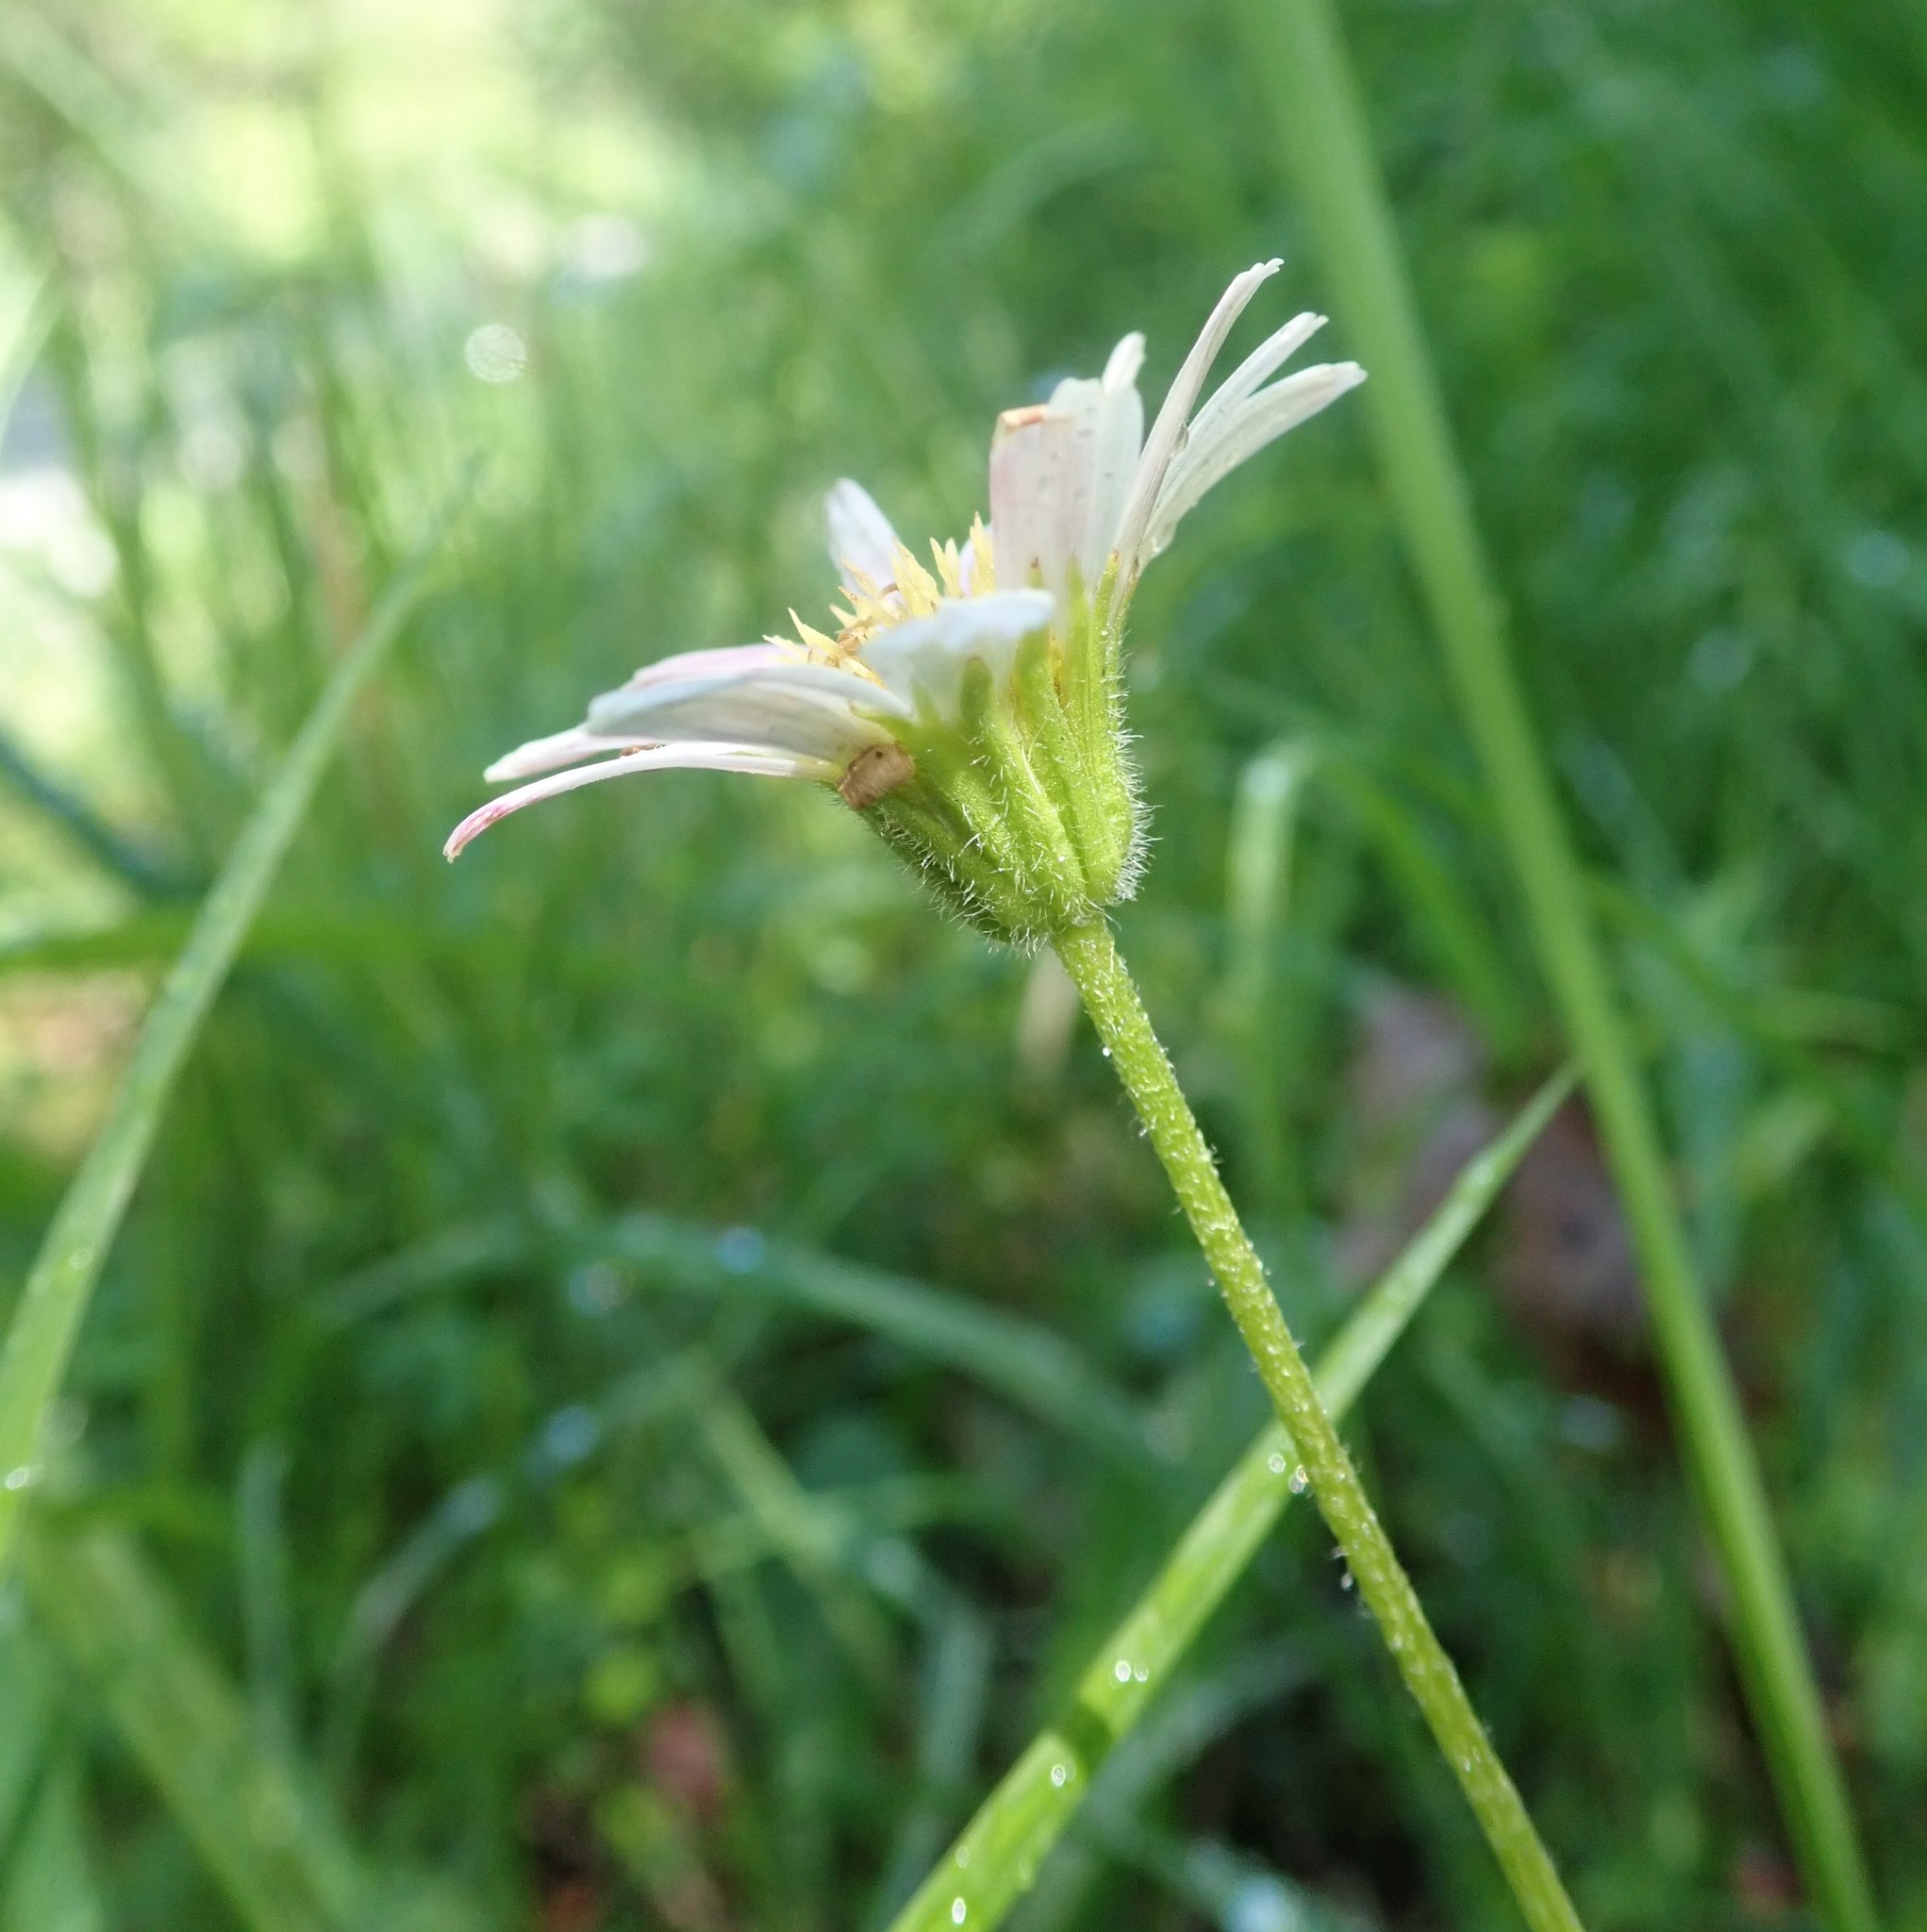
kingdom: Plantae
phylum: Tracheophyta
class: Magnoliopsida
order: Asterales
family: Asteraceae
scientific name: Asteraceae
